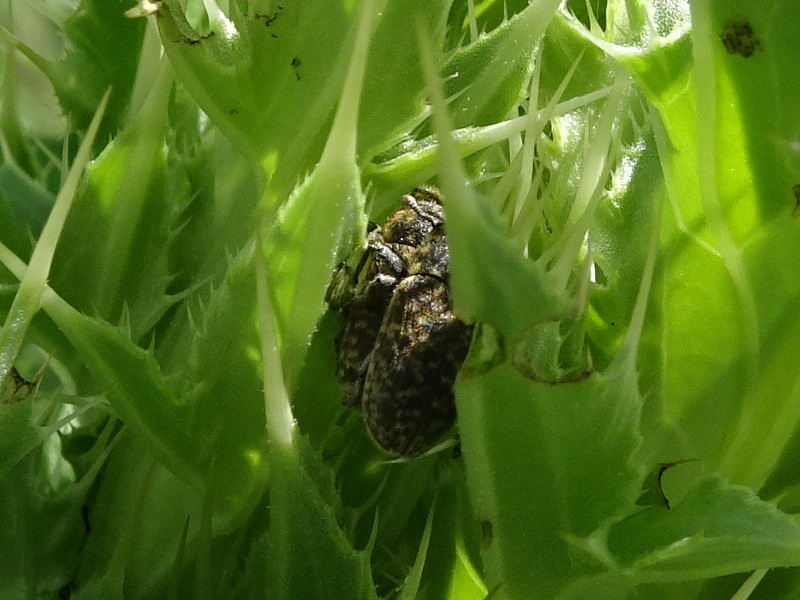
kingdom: Animalia
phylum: Arthropoda
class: Insecta
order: Coleoptera
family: Curculionidae
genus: Rhinocyllus
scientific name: Rhinocyllus conicus
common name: Weevil
